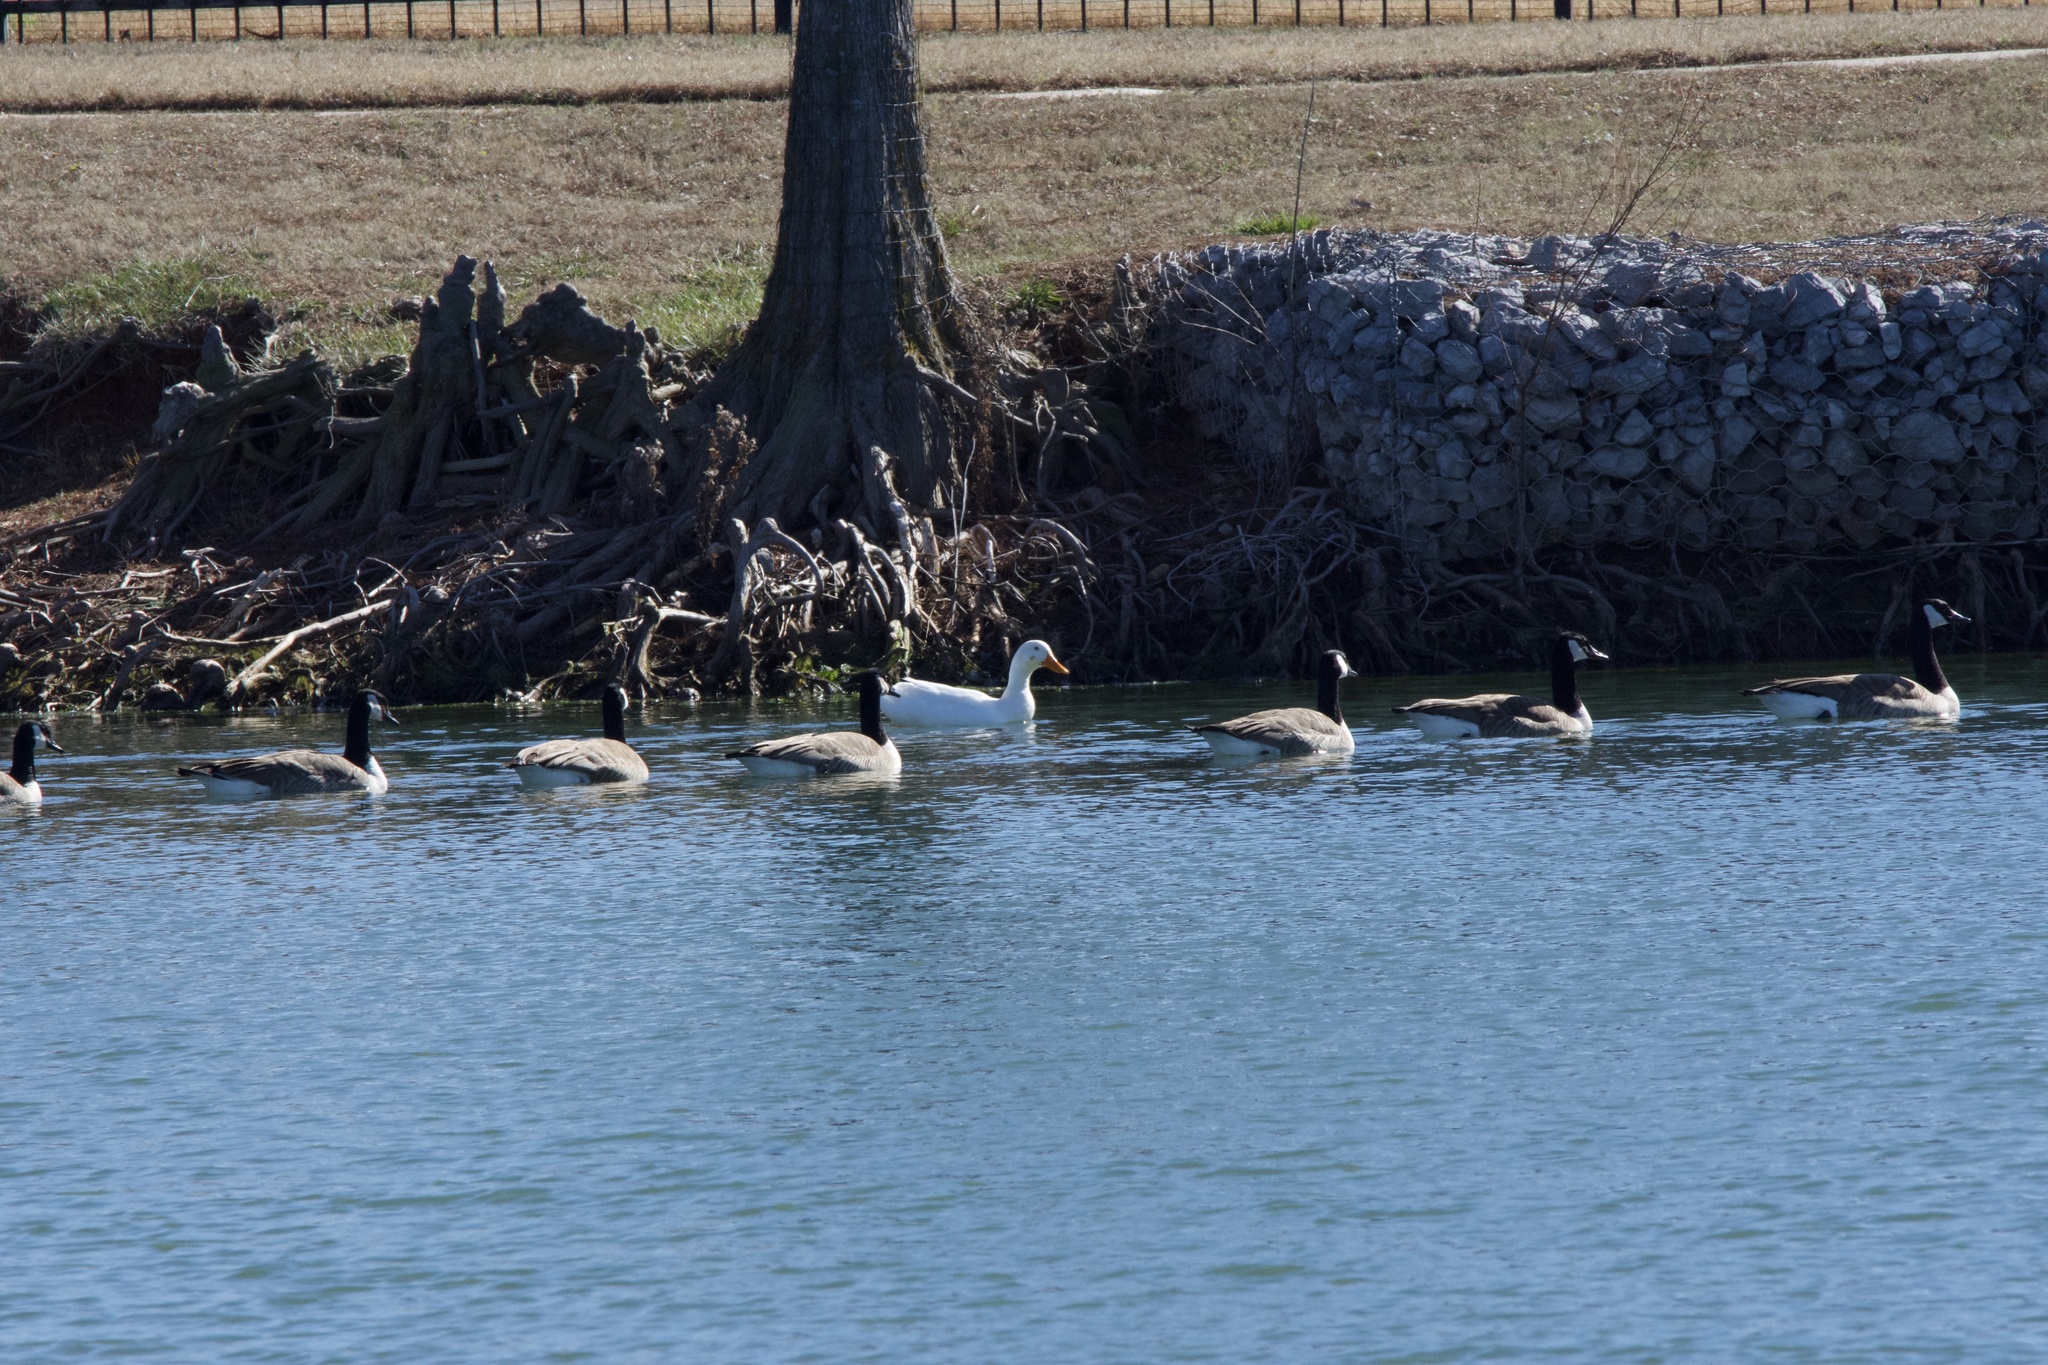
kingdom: Animalia
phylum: Chordata
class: Aves
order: Anseriformes
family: Anatidae
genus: Anas
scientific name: Anas platyrhynchos
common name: Mallard
